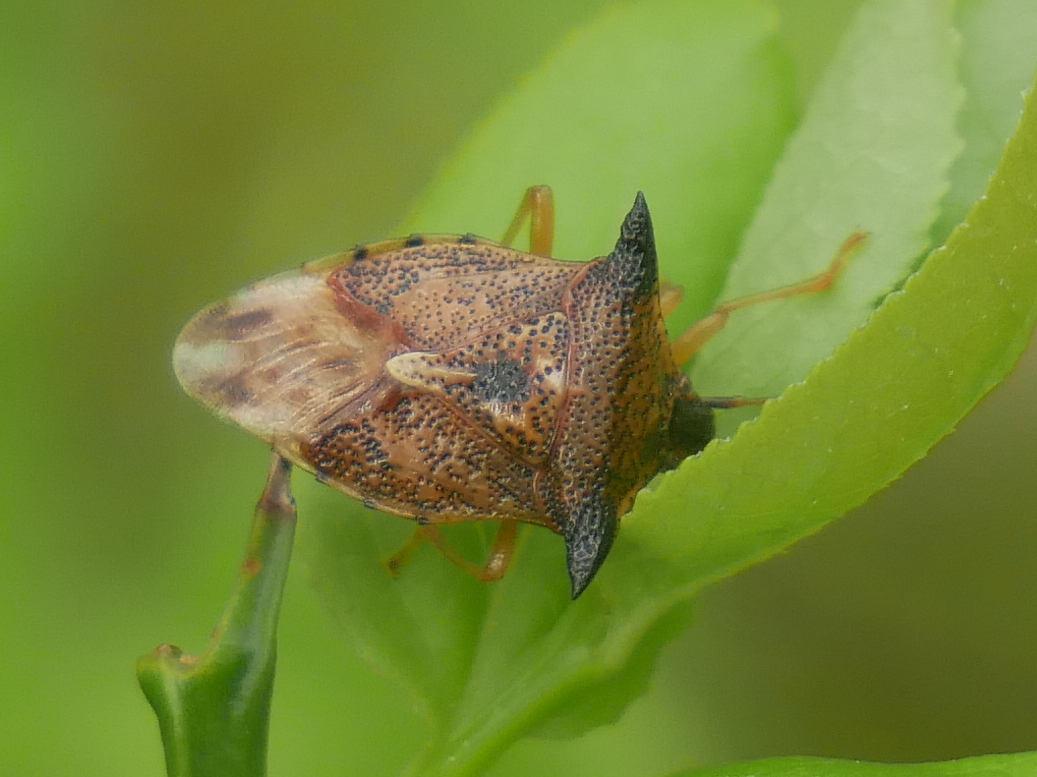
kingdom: Animalia
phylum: Arthropoda
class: Insecta
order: Hemiptera
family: Acanthosomatidae
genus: Elasmucha
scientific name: Elasmucha ferrugata
